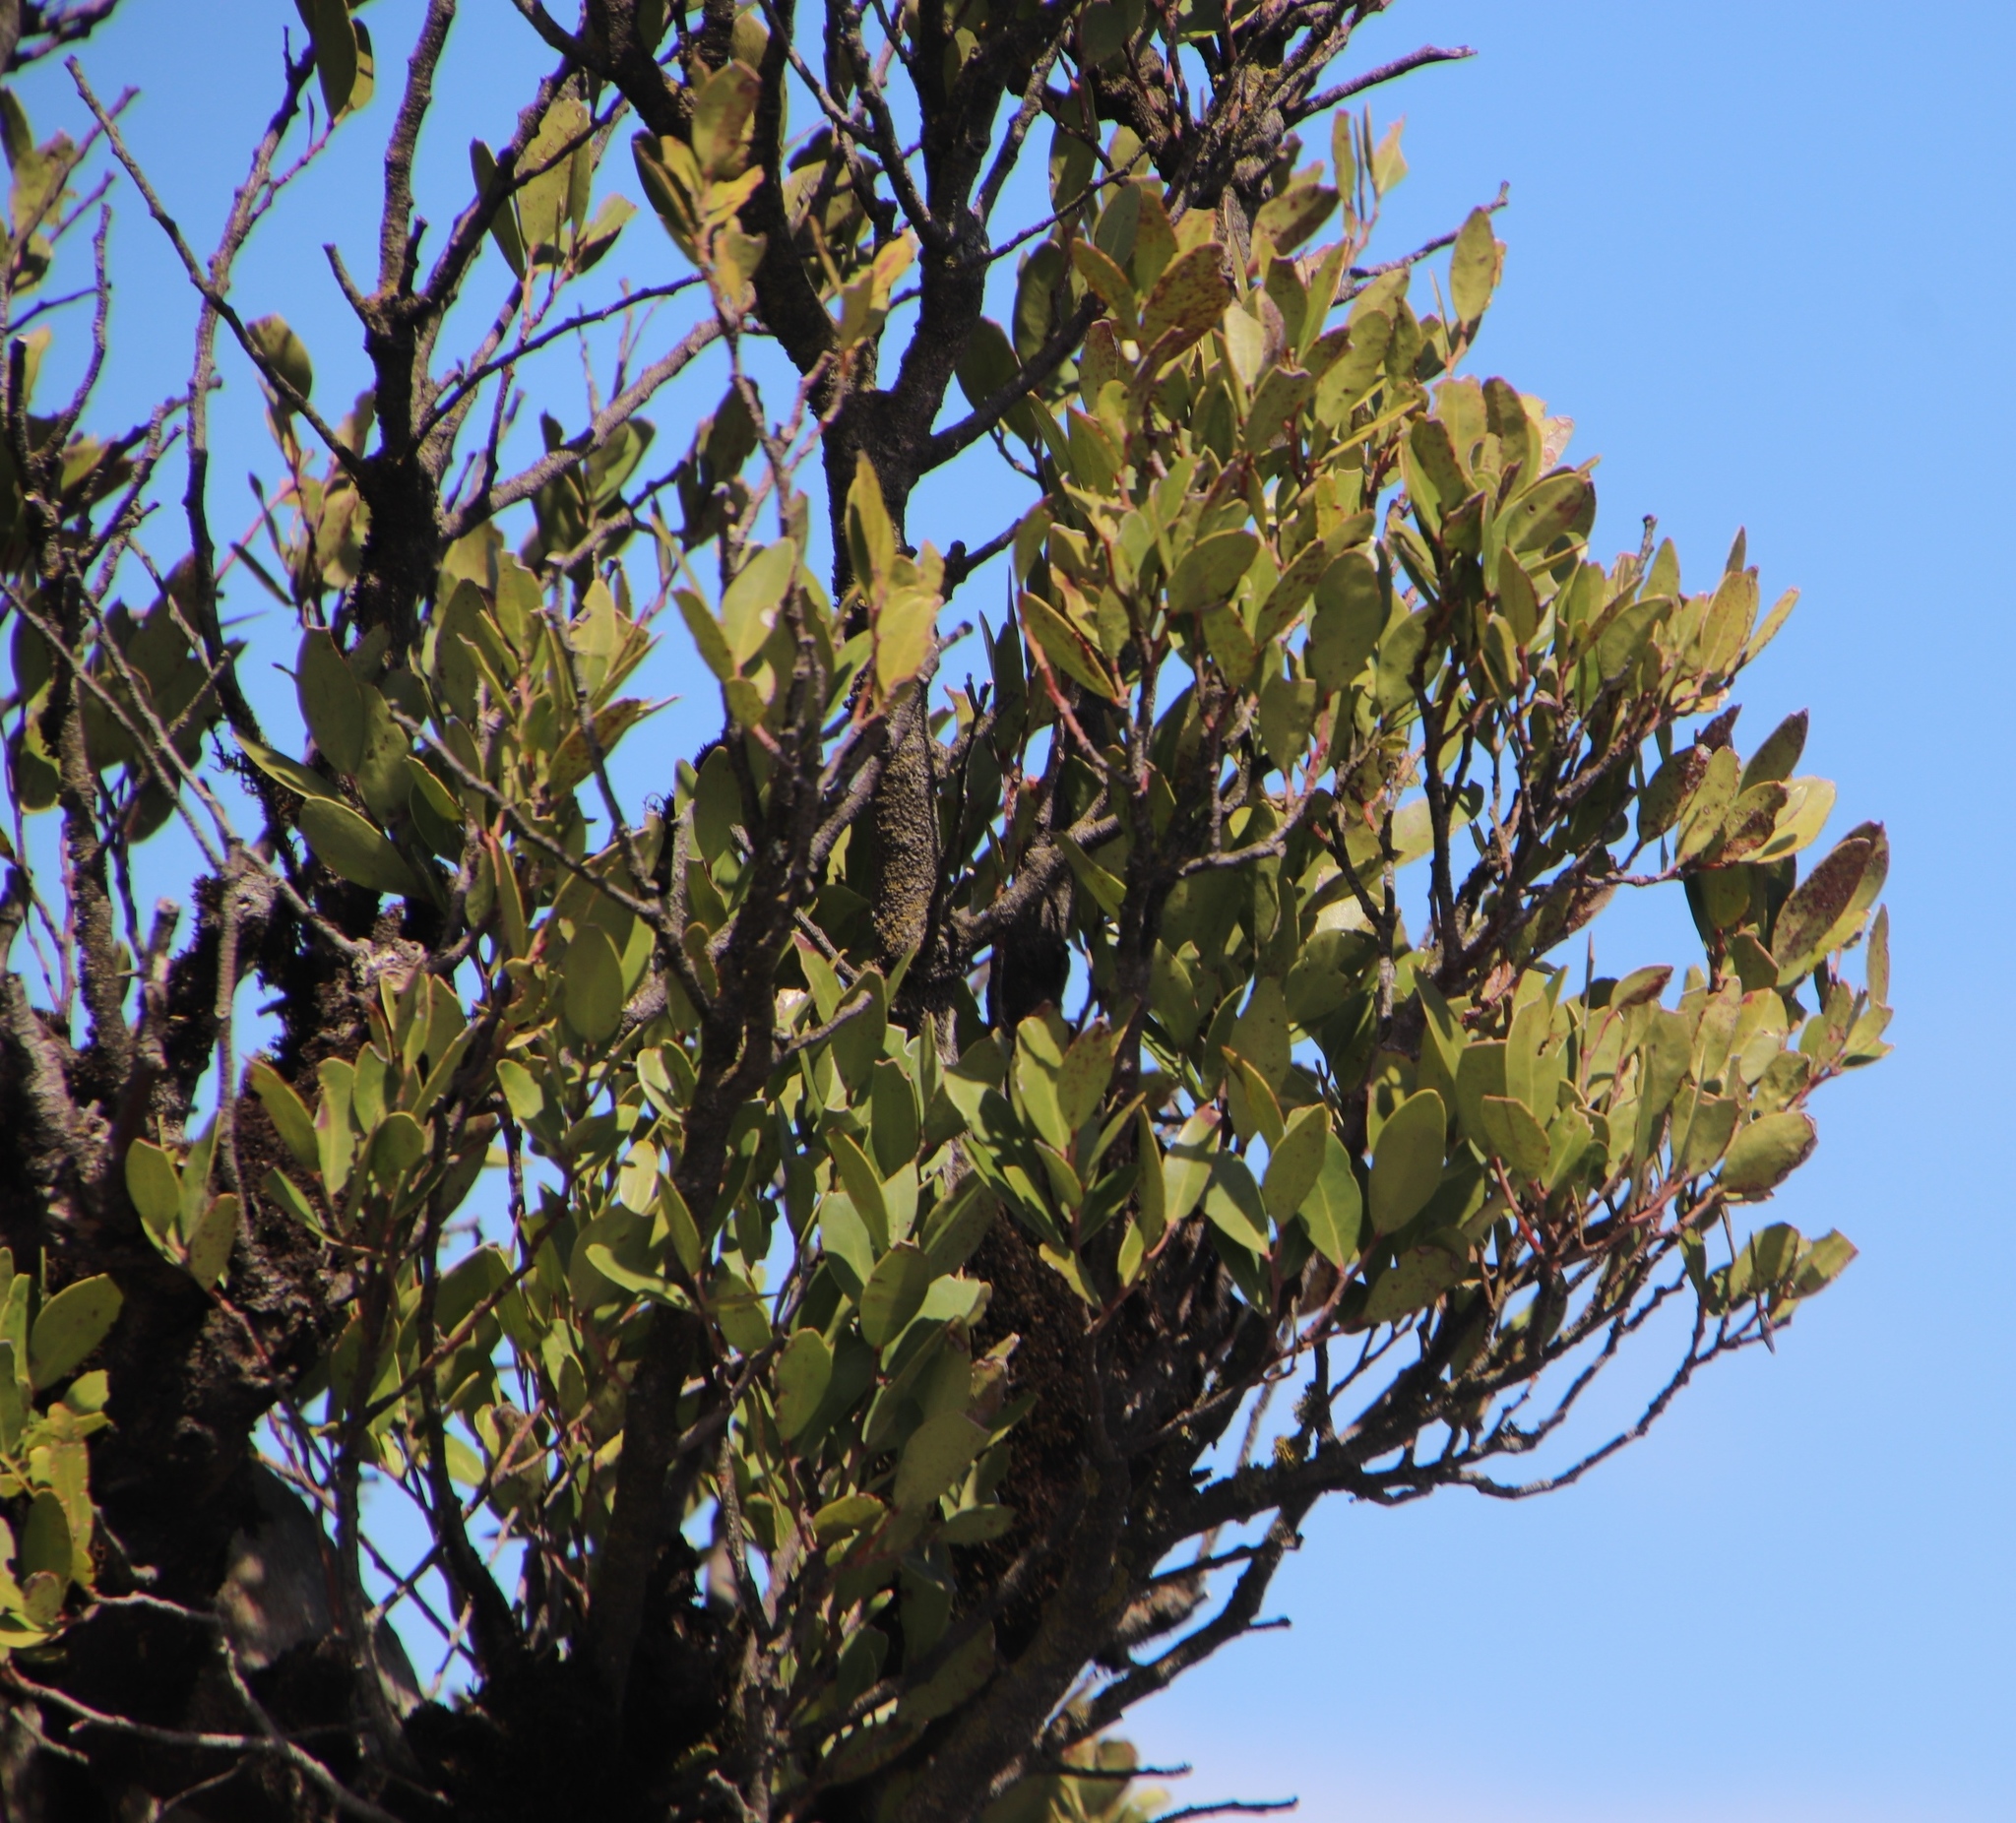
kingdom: Plantae
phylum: Tracheophyta
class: Magnoliopsida
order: Celastrales
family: Celastraceae
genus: Gymnosporia
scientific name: Gymnosporia laurina
